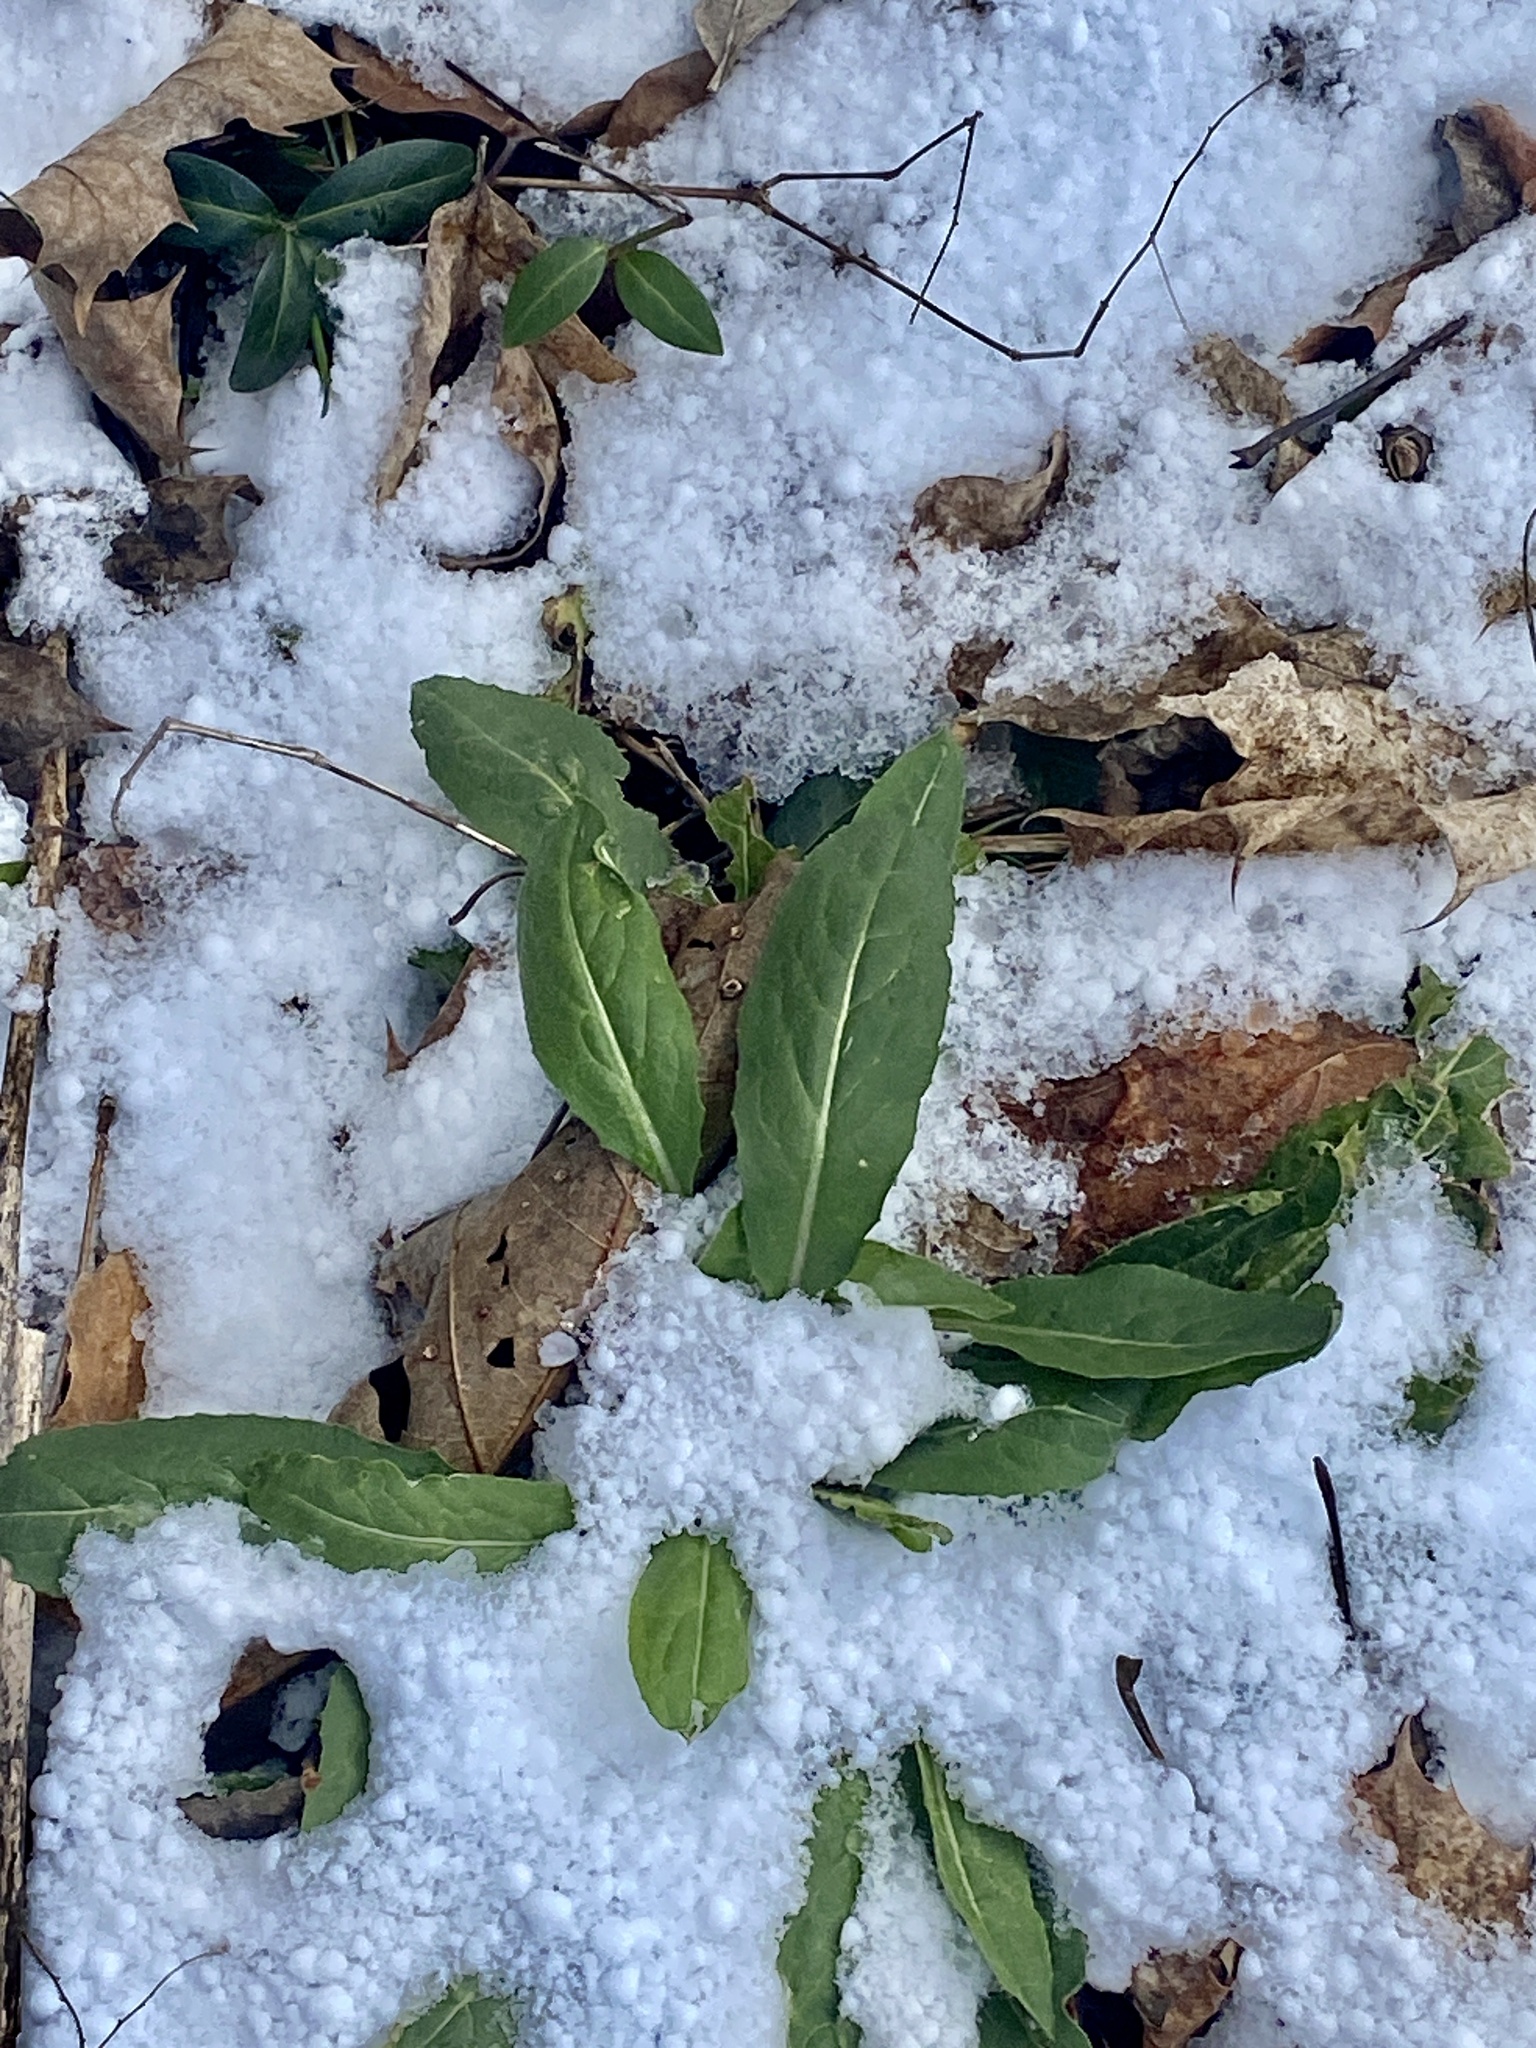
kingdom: Plantae
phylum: Tracheophyta
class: Magnoliopsida
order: Brassicales
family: Brassicaceae
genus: Hesperis
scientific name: Hesperis matronalis
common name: Dame's-violet
